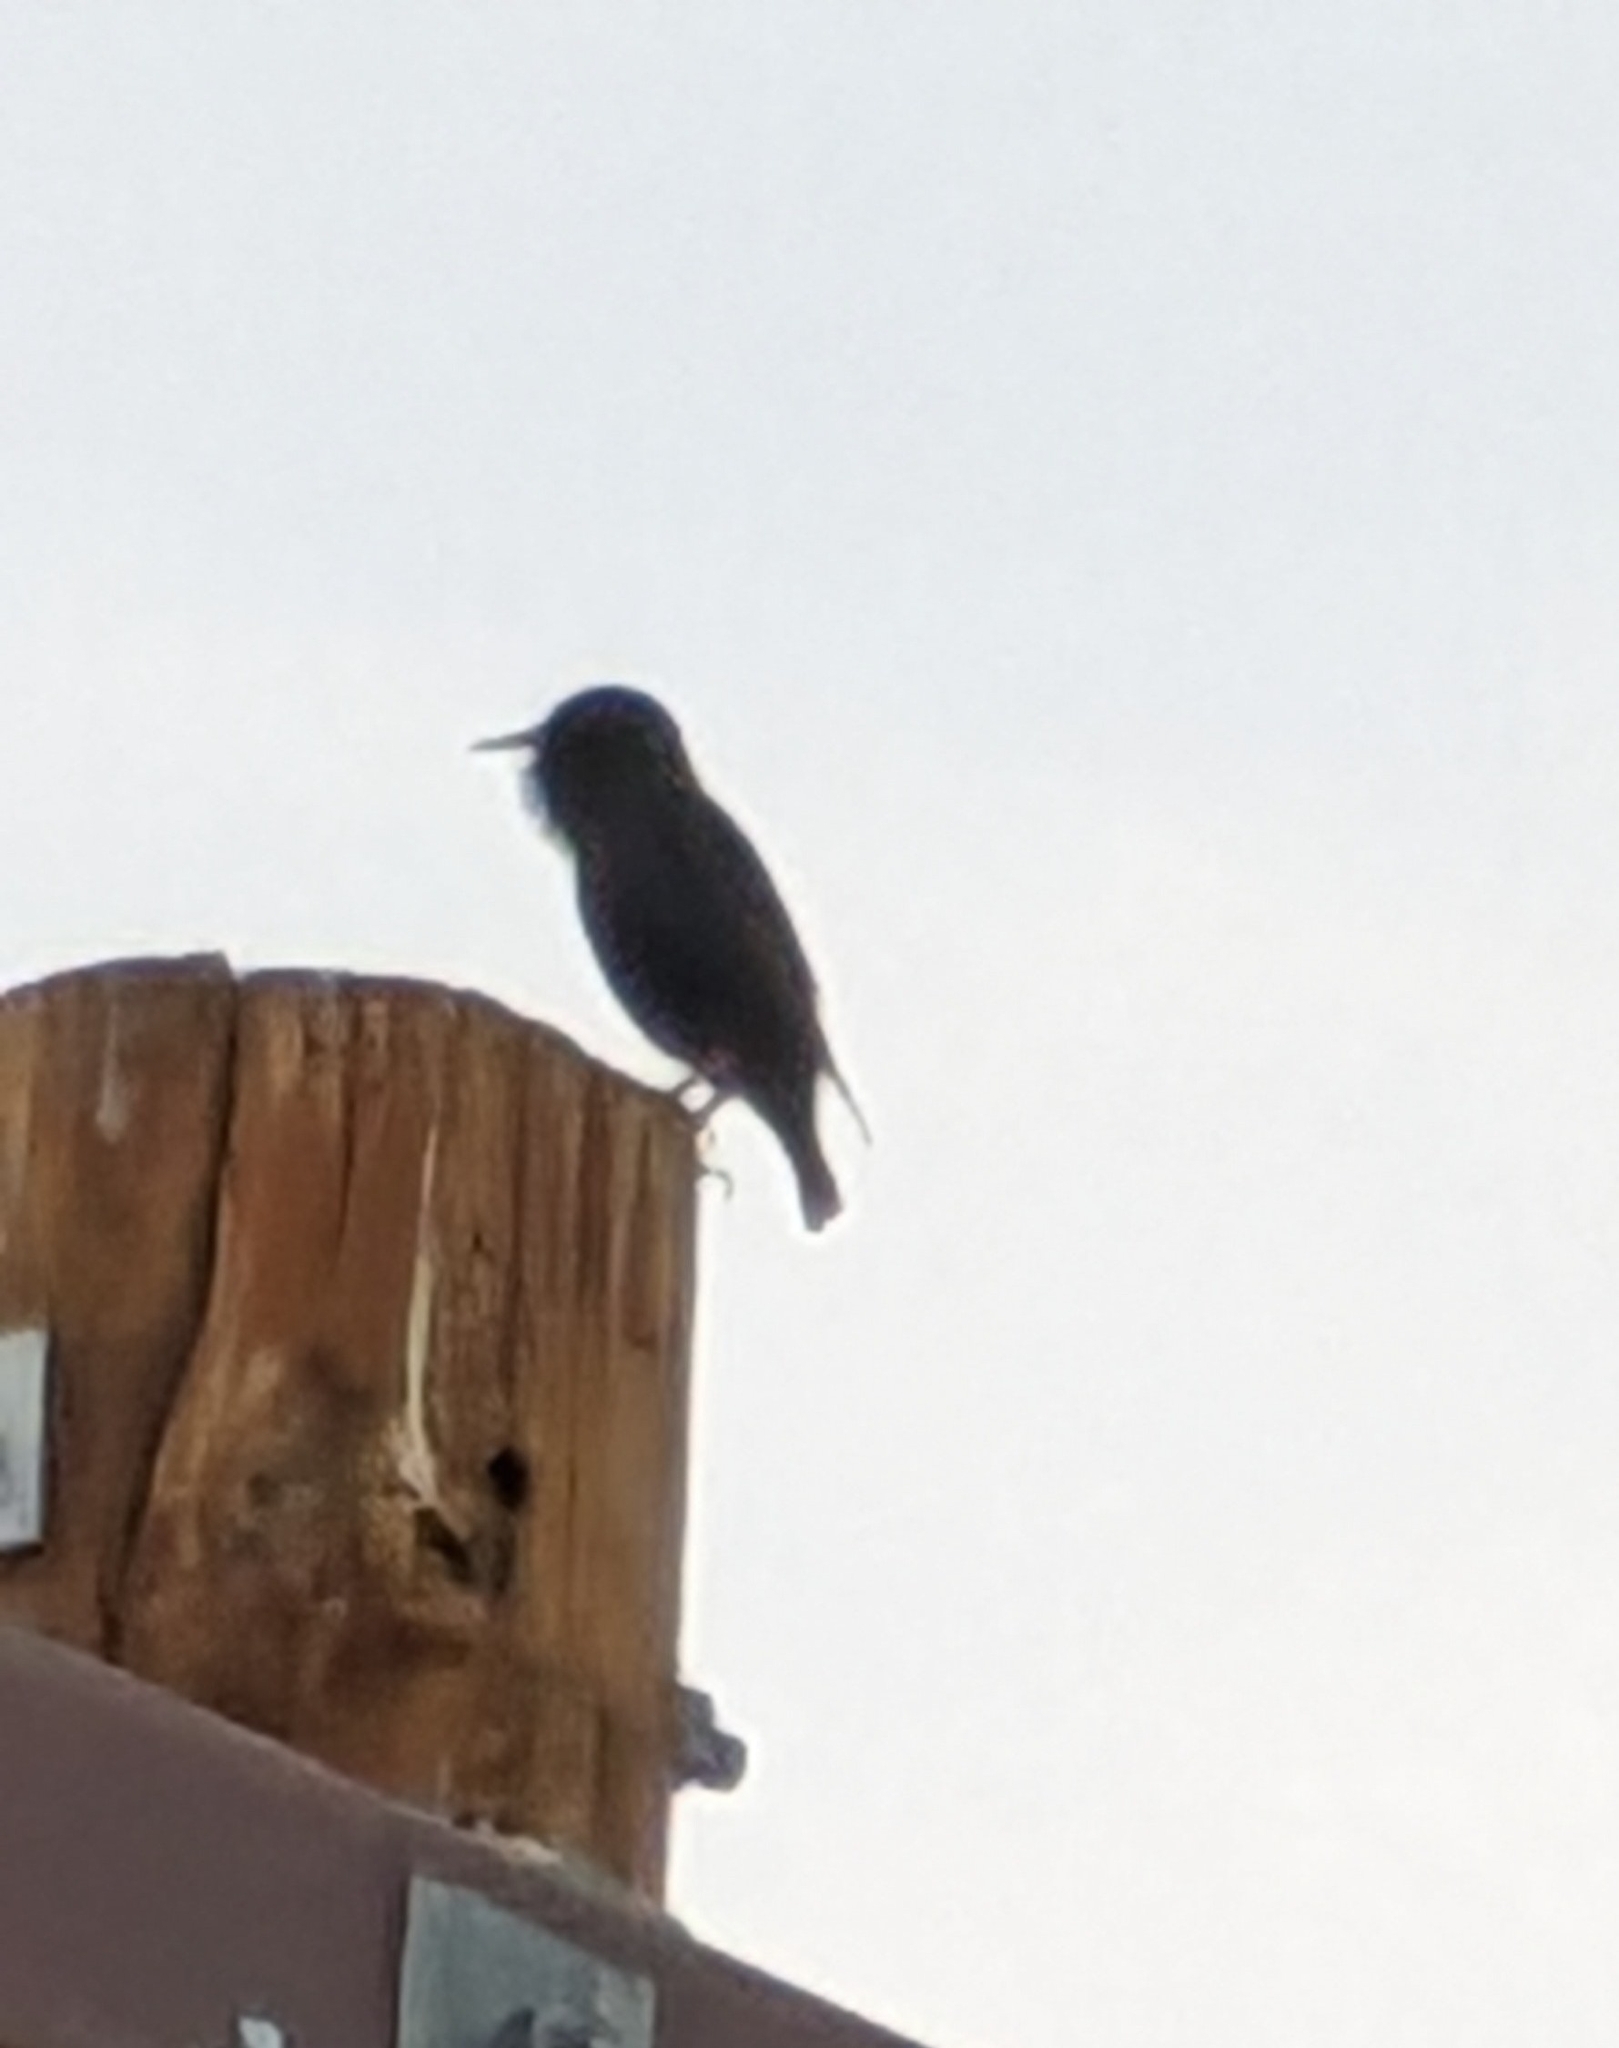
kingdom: Animalia
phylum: Chordata
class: Aves
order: Passeriformes
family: Sturnidae
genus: Sturnus
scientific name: Sturnus vulgaris
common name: Common starling
